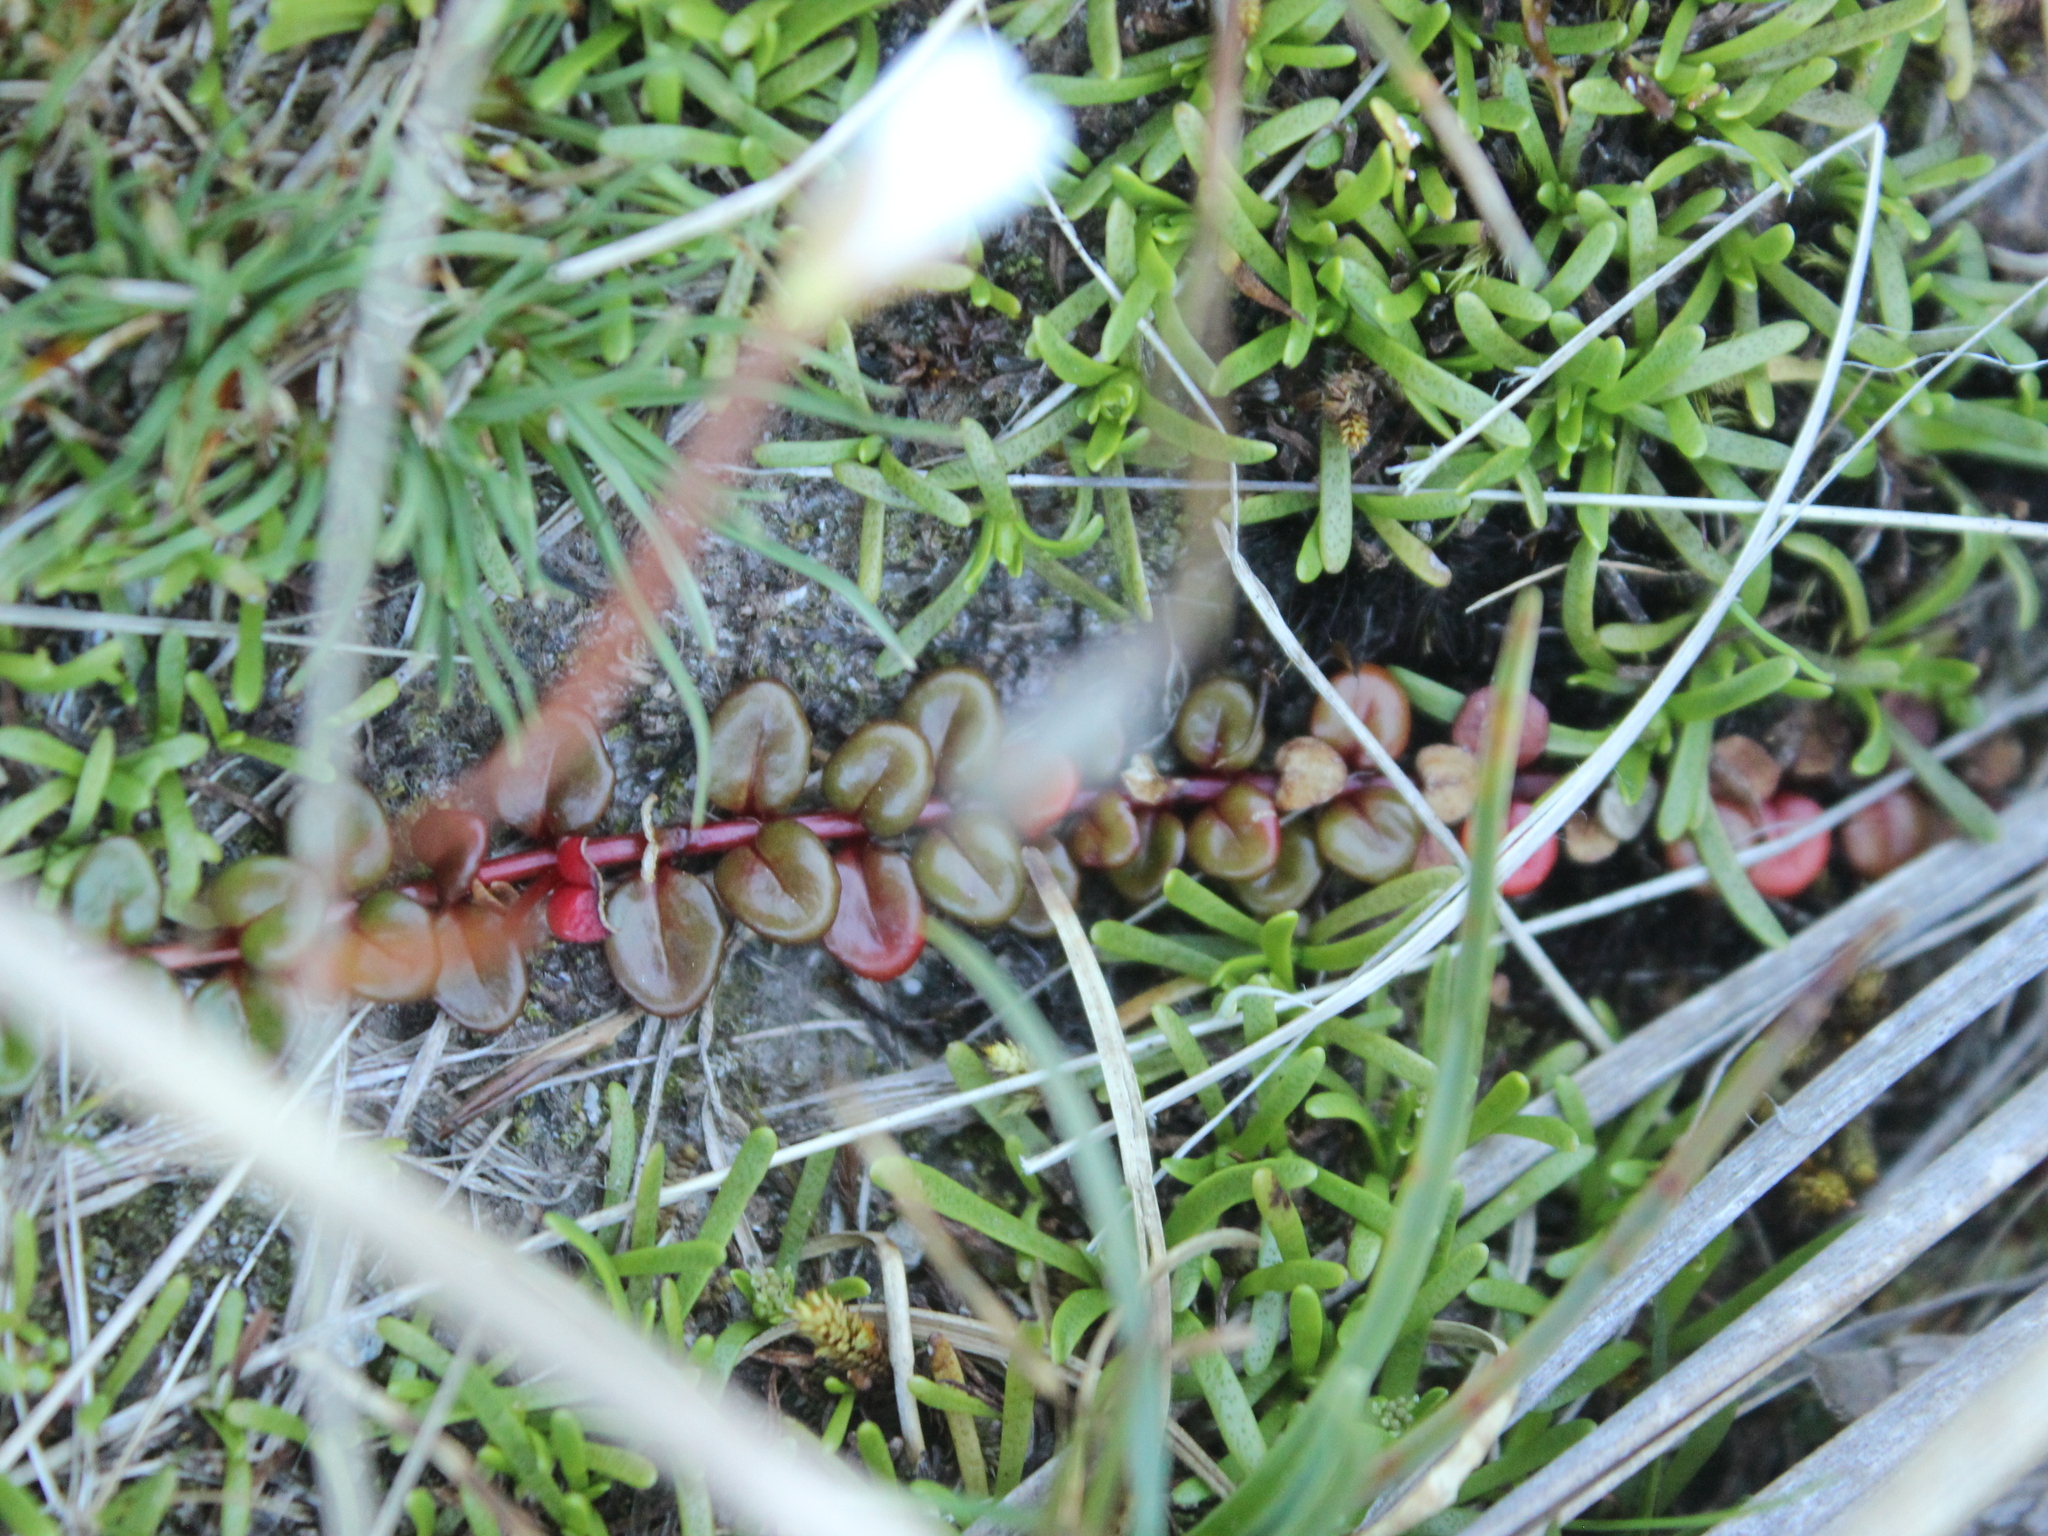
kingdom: Plantae
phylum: Tracheophyta
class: Magnoliopsida
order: Myrtales
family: Onagraceae
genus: Epilobium
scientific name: Epilobium pernitens
